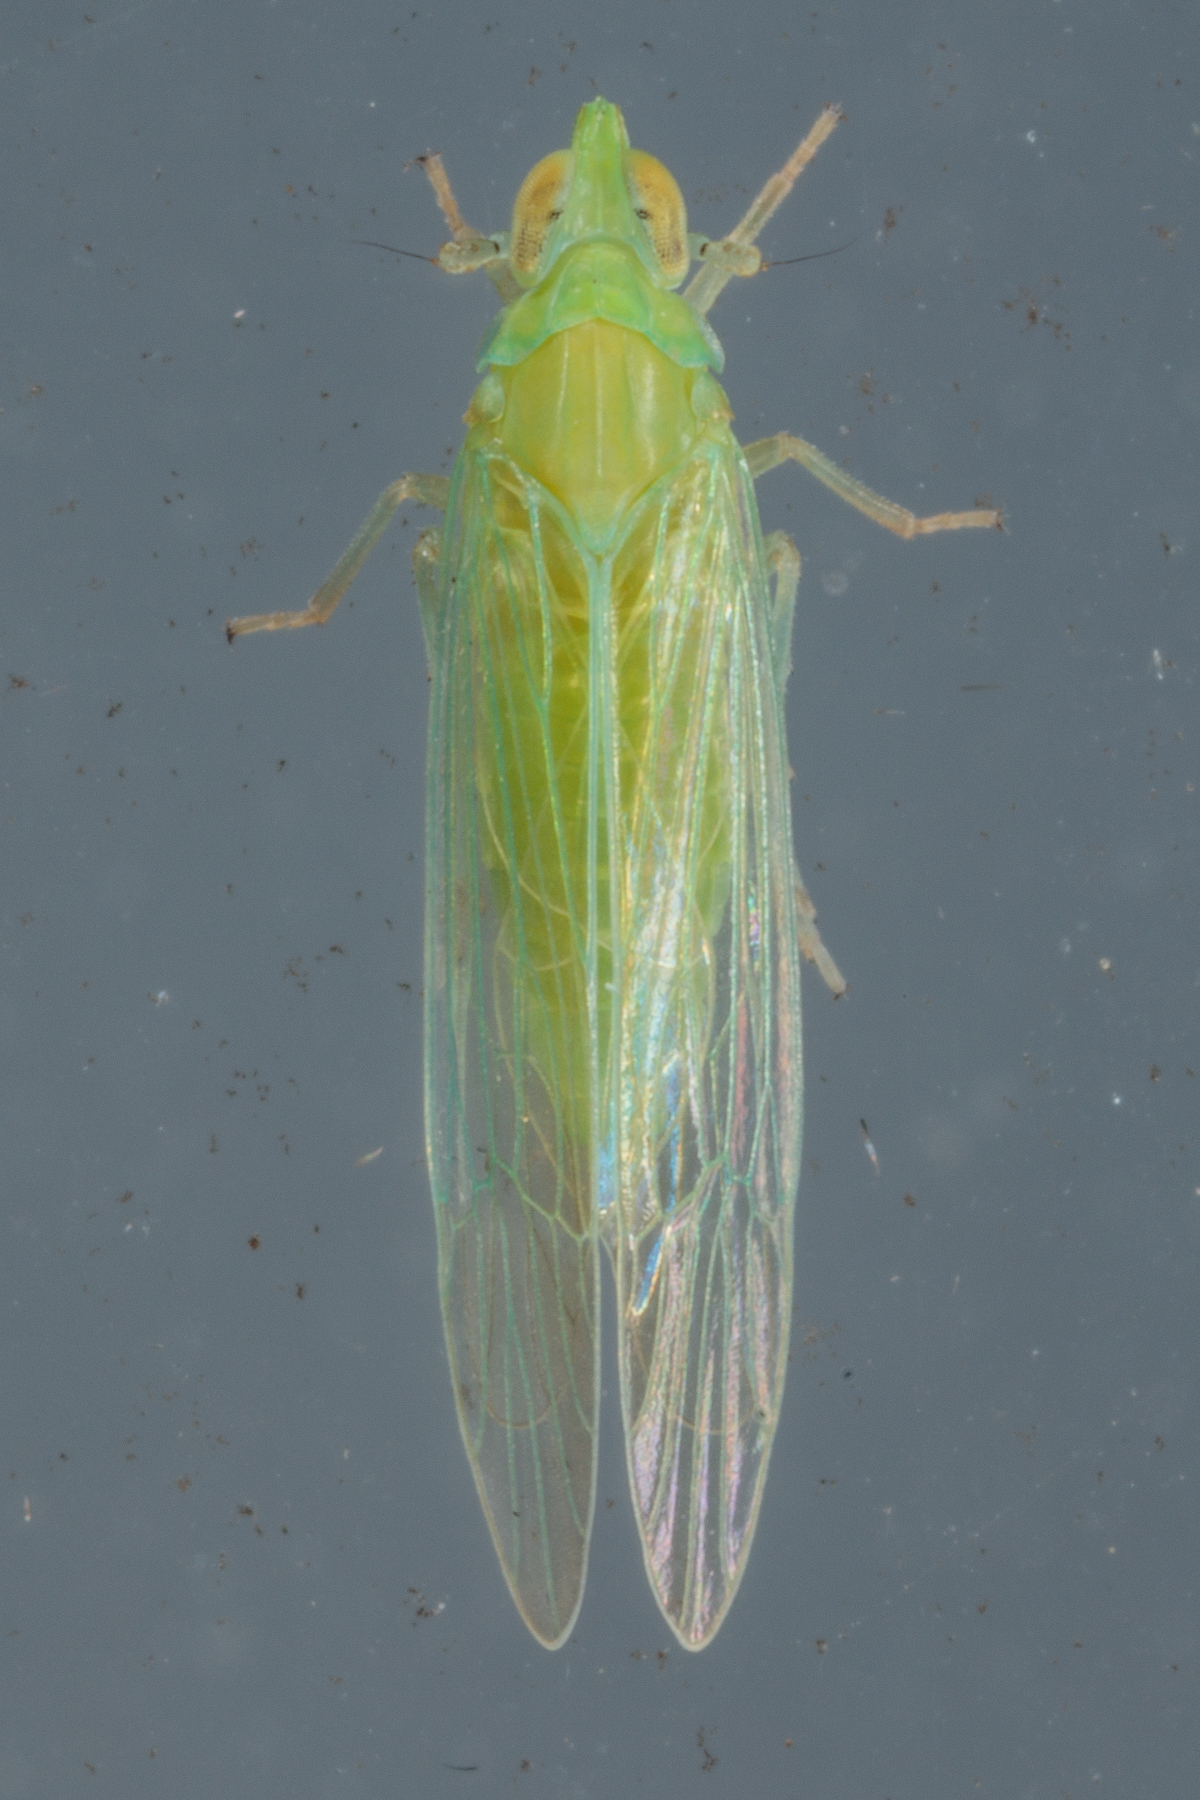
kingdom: Animalia
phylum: Arthropoda
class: Insecta
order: Hemiptera
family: Delphacidae
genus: Saccharosydne
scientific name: Saccharosydne saccharivora
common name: Delphacid planthopper
